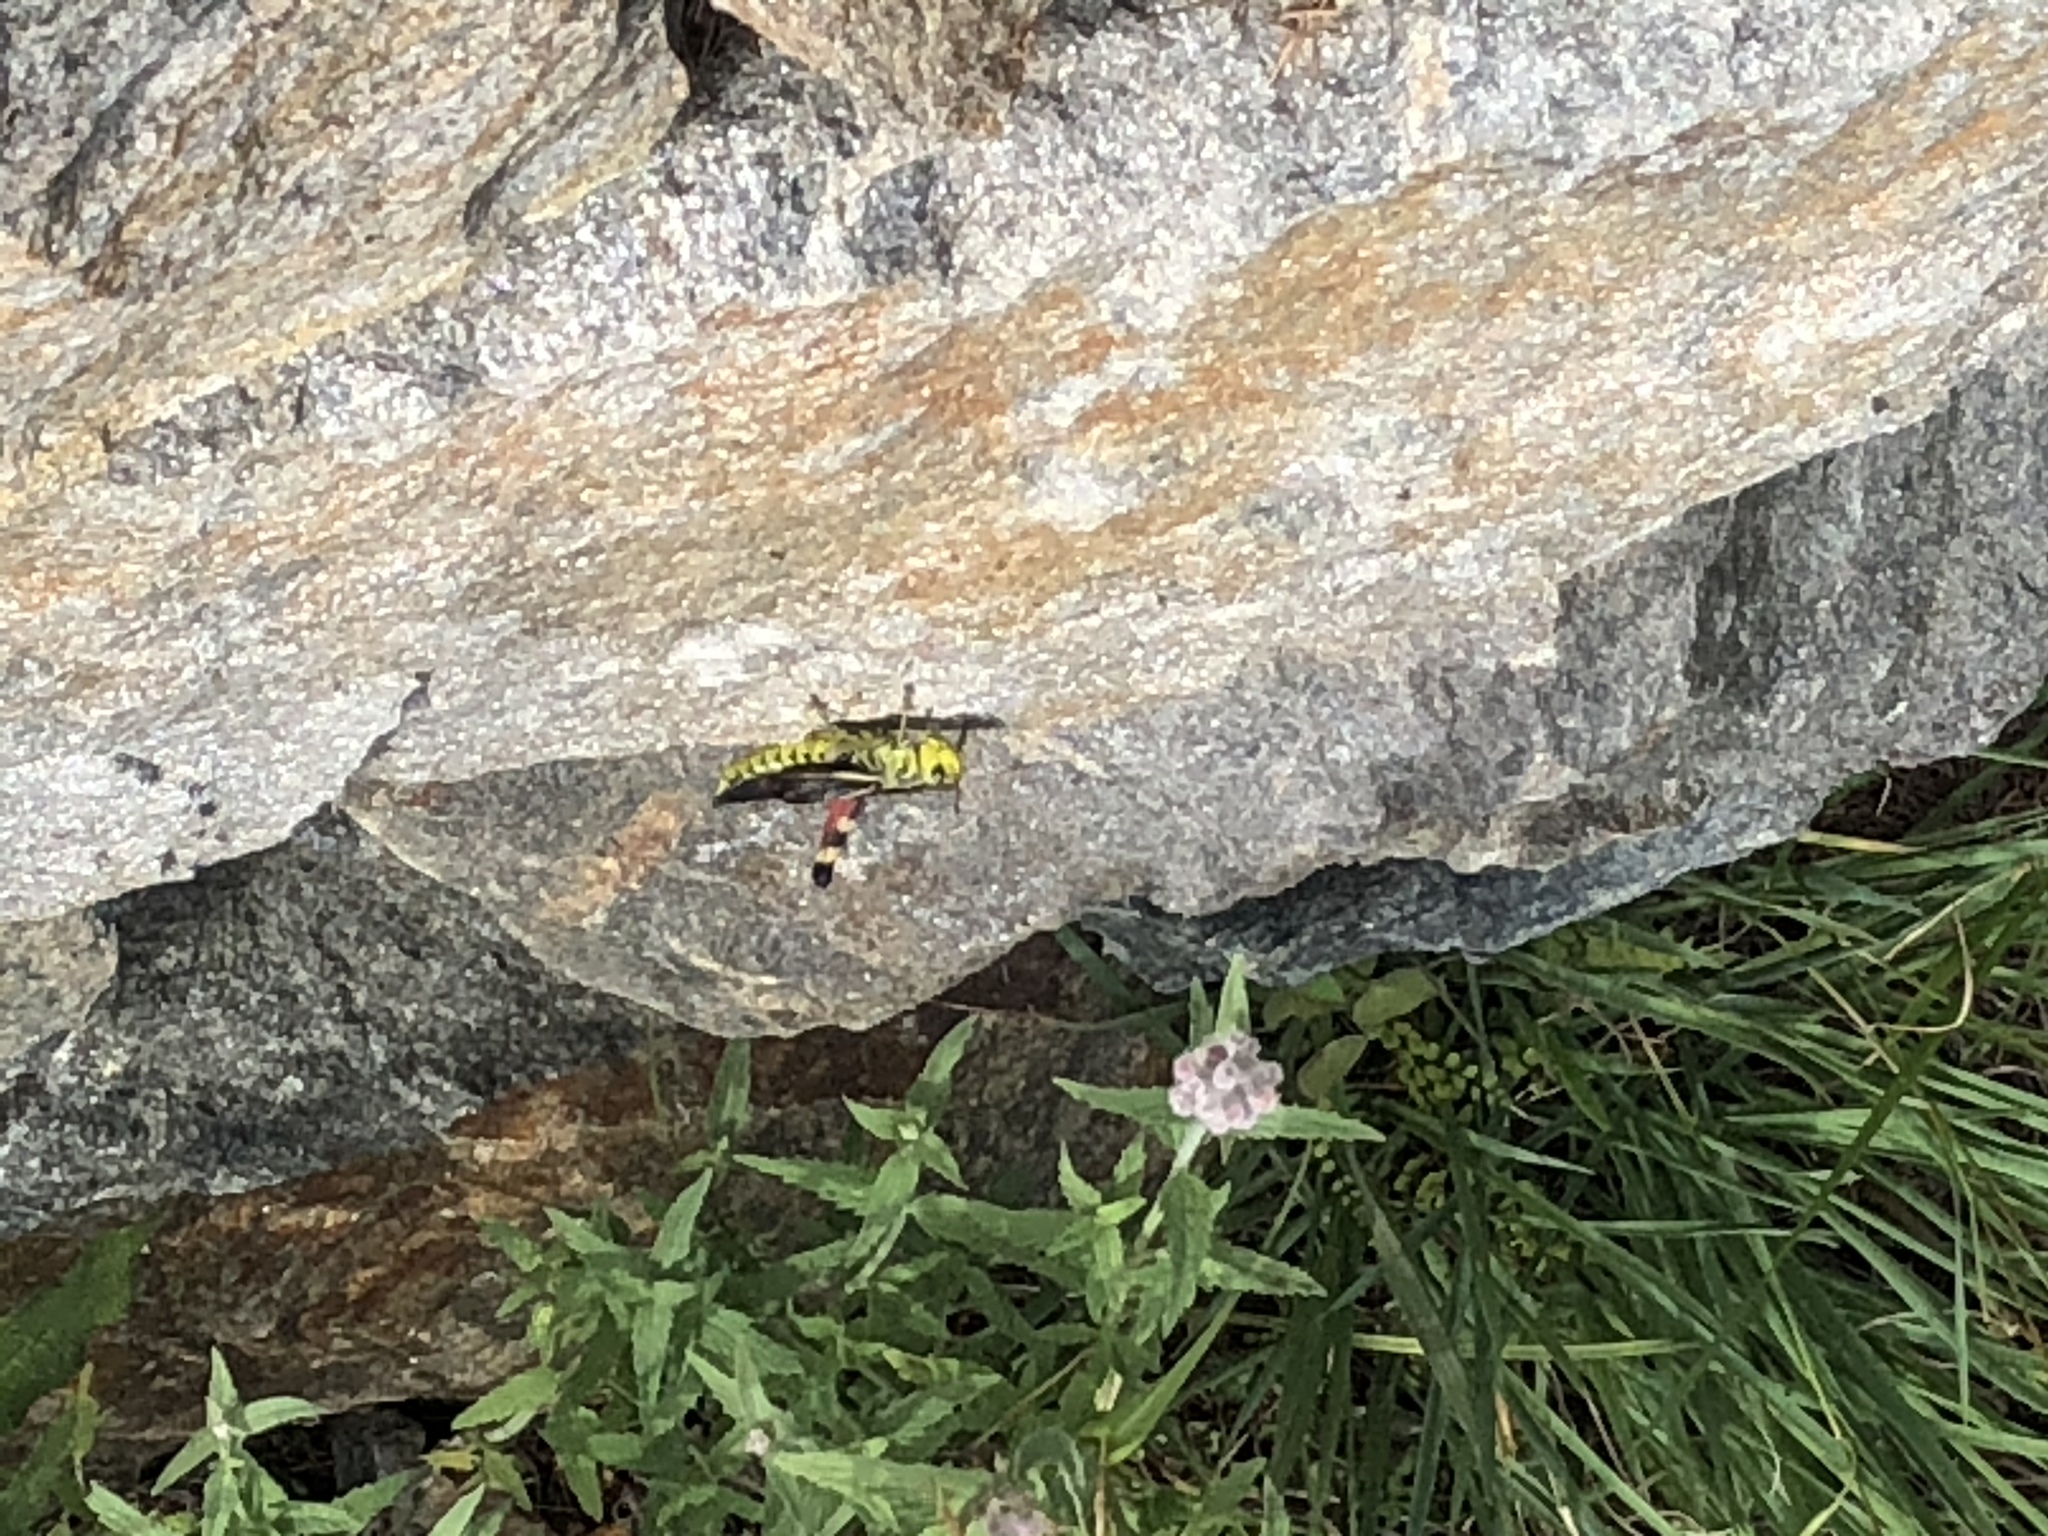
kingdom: Animalia
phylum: Arthropoda
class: Insecta
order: Orthoptera
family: Acrididae
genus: Arcyptera
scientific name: Arcyptera fusca
